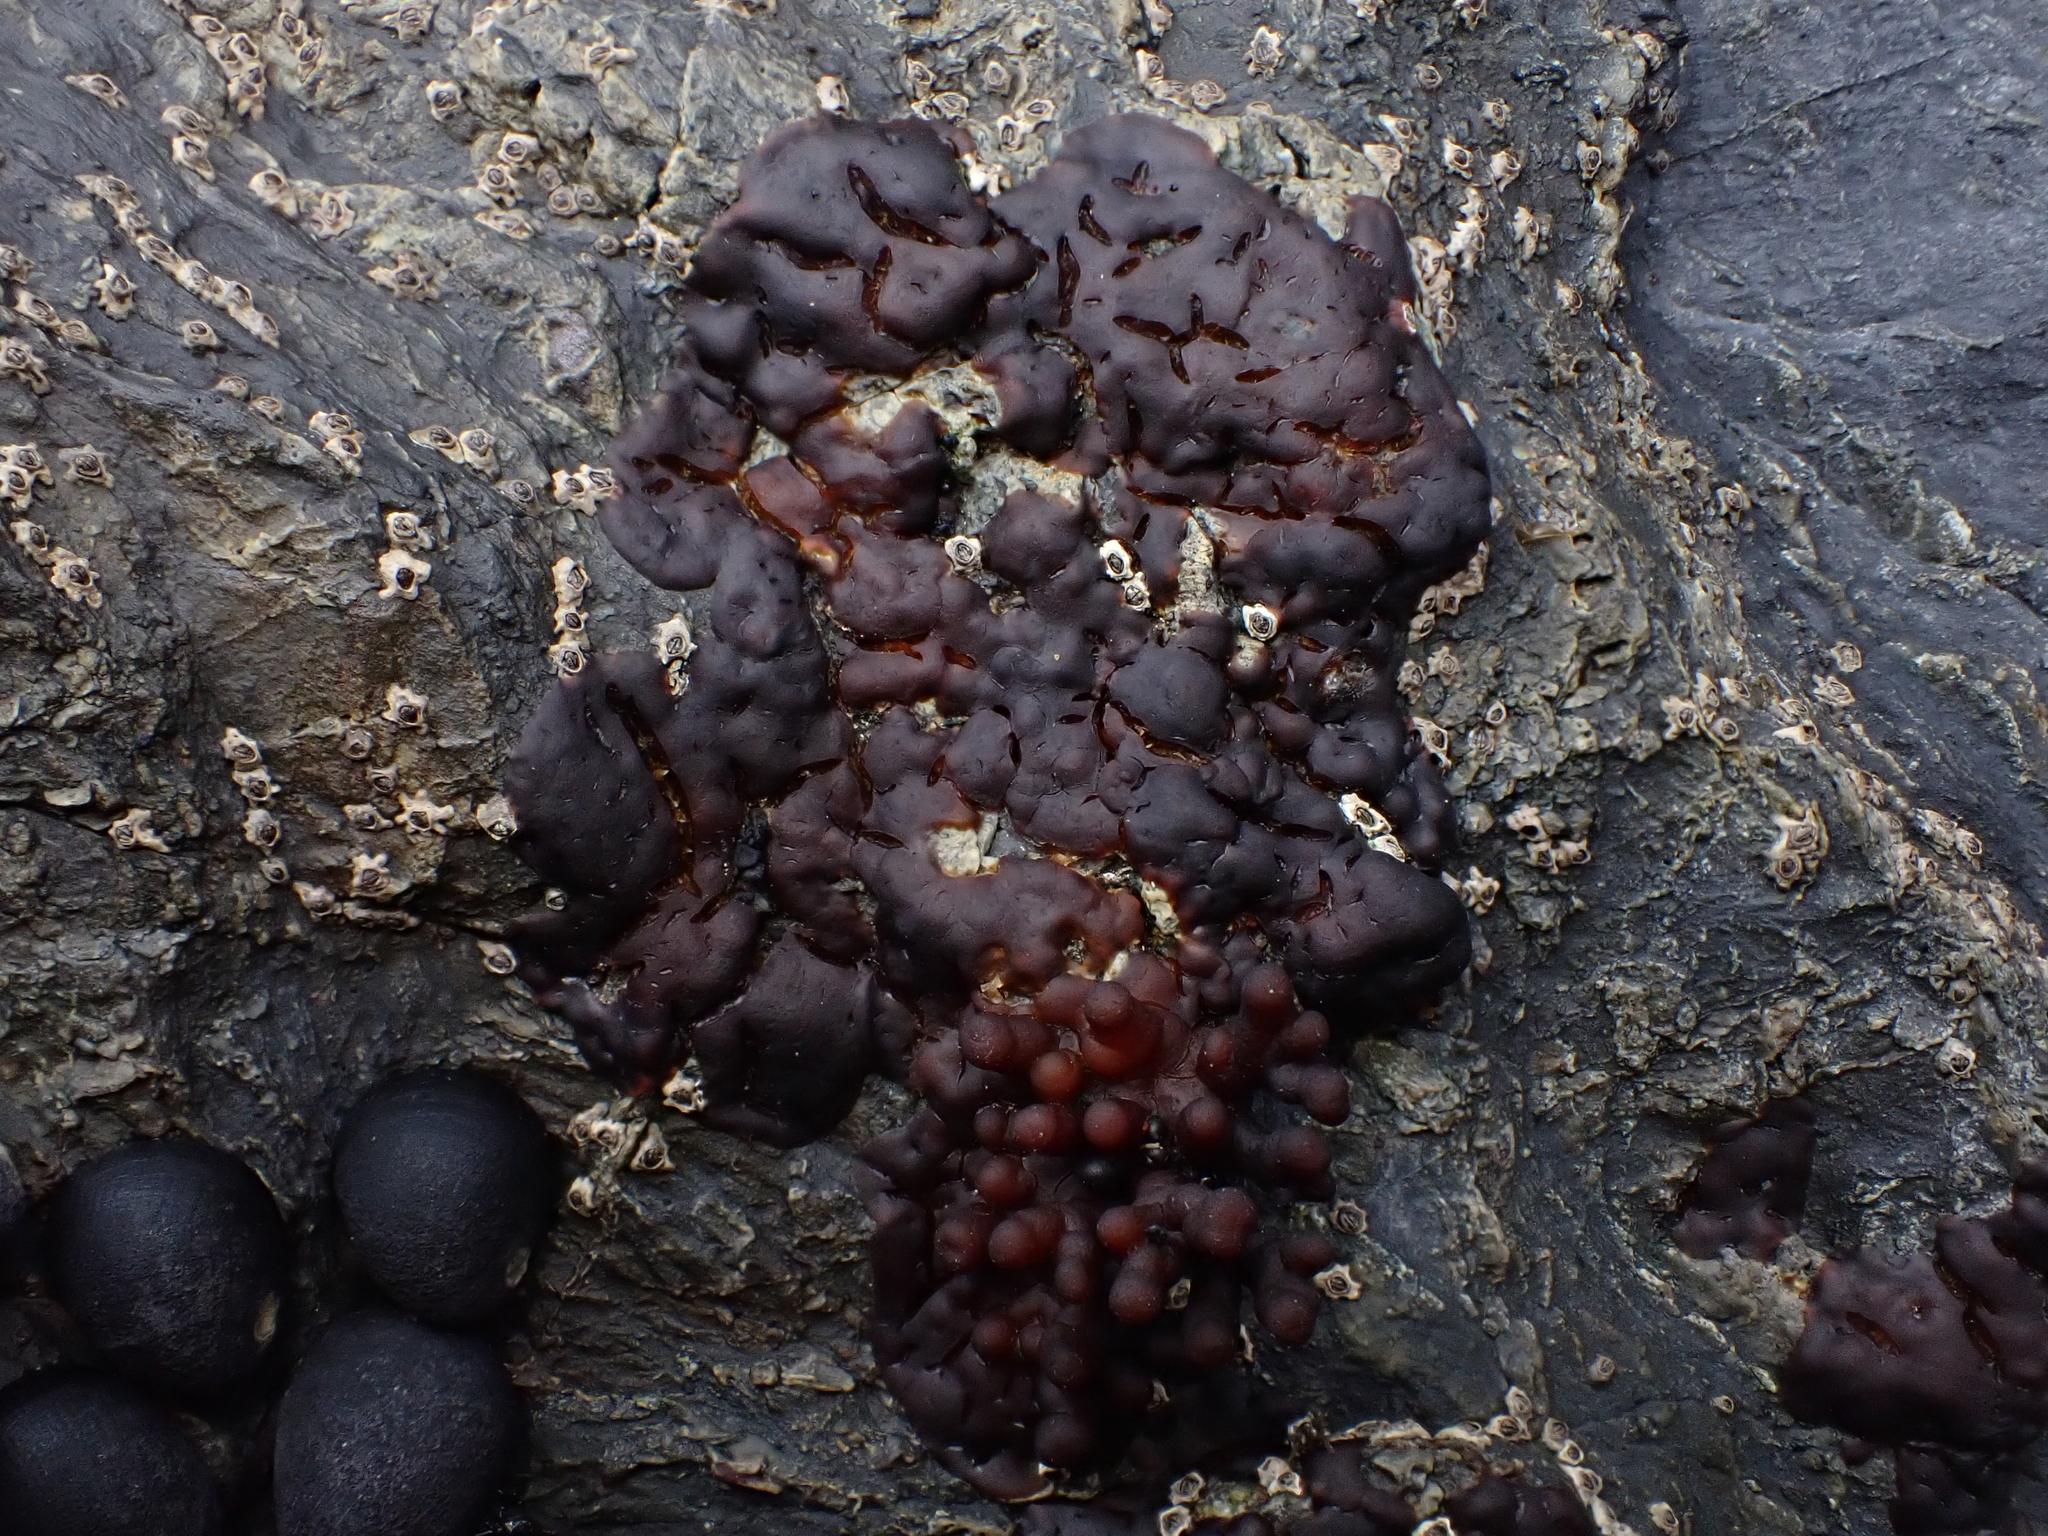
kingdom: Plantae
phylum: Rhodophyta
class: Florideophyceae
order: Hildenbrandiales
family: Hildenbrandiaceae
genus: Apophlaea
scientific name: Apophlaea sinclairii
